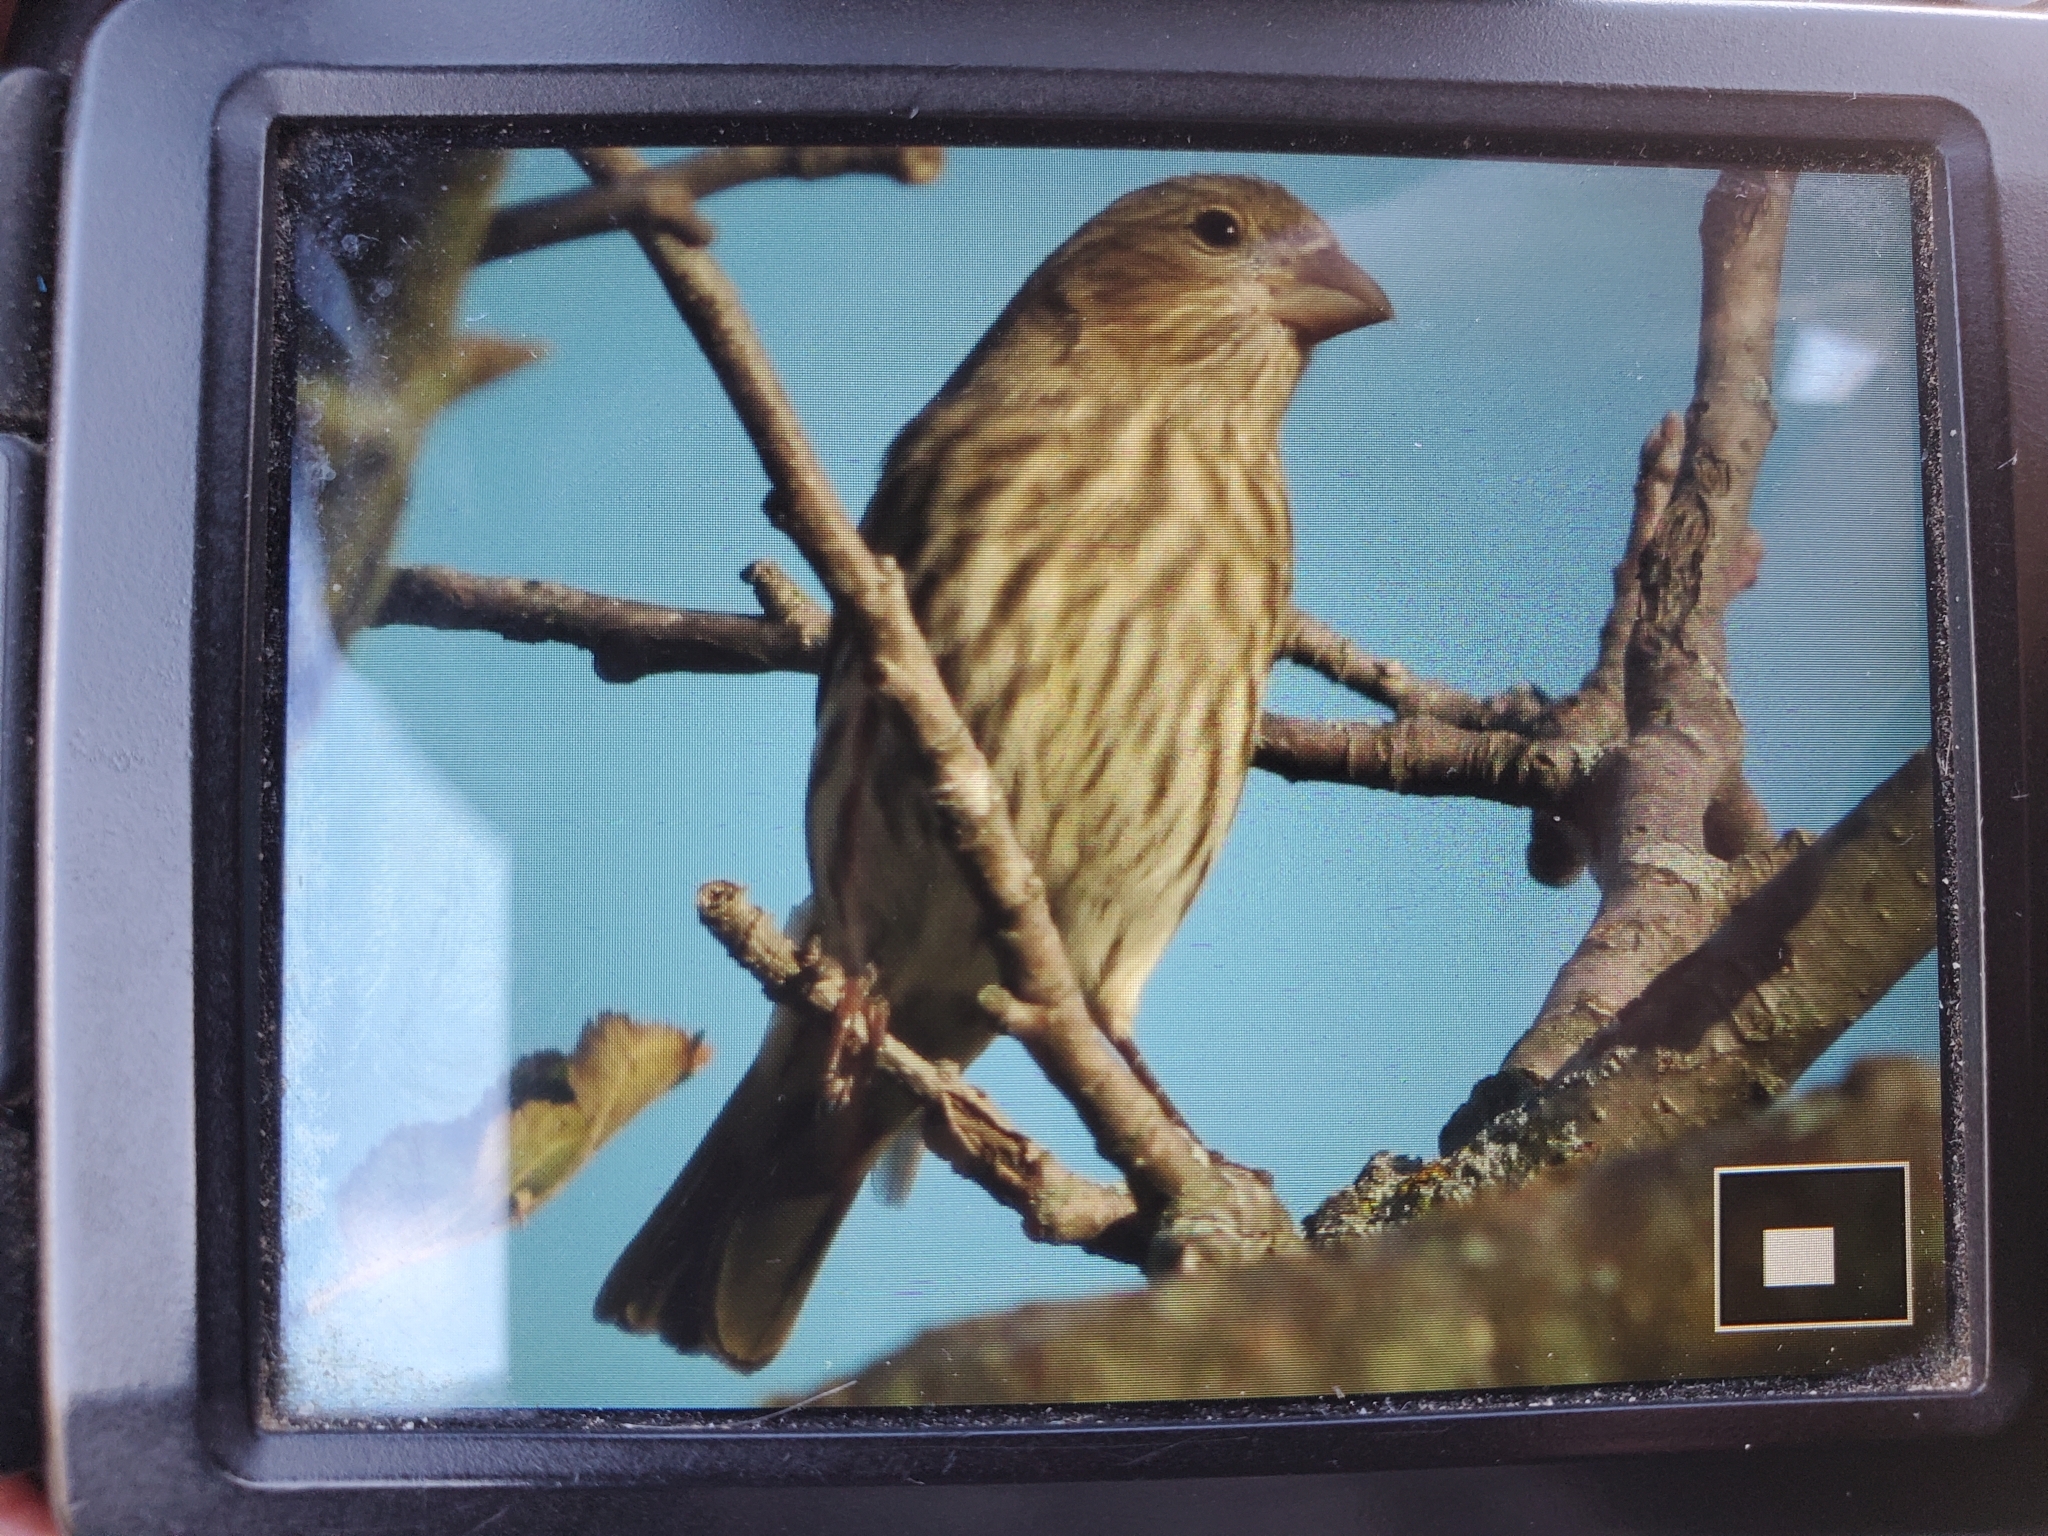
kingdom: Animalia
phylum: Chordata
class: Aves
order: Passeriformes
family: Fringillidae
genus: Haemorhous
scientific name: Haemorhous mexicanus
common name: House finch
